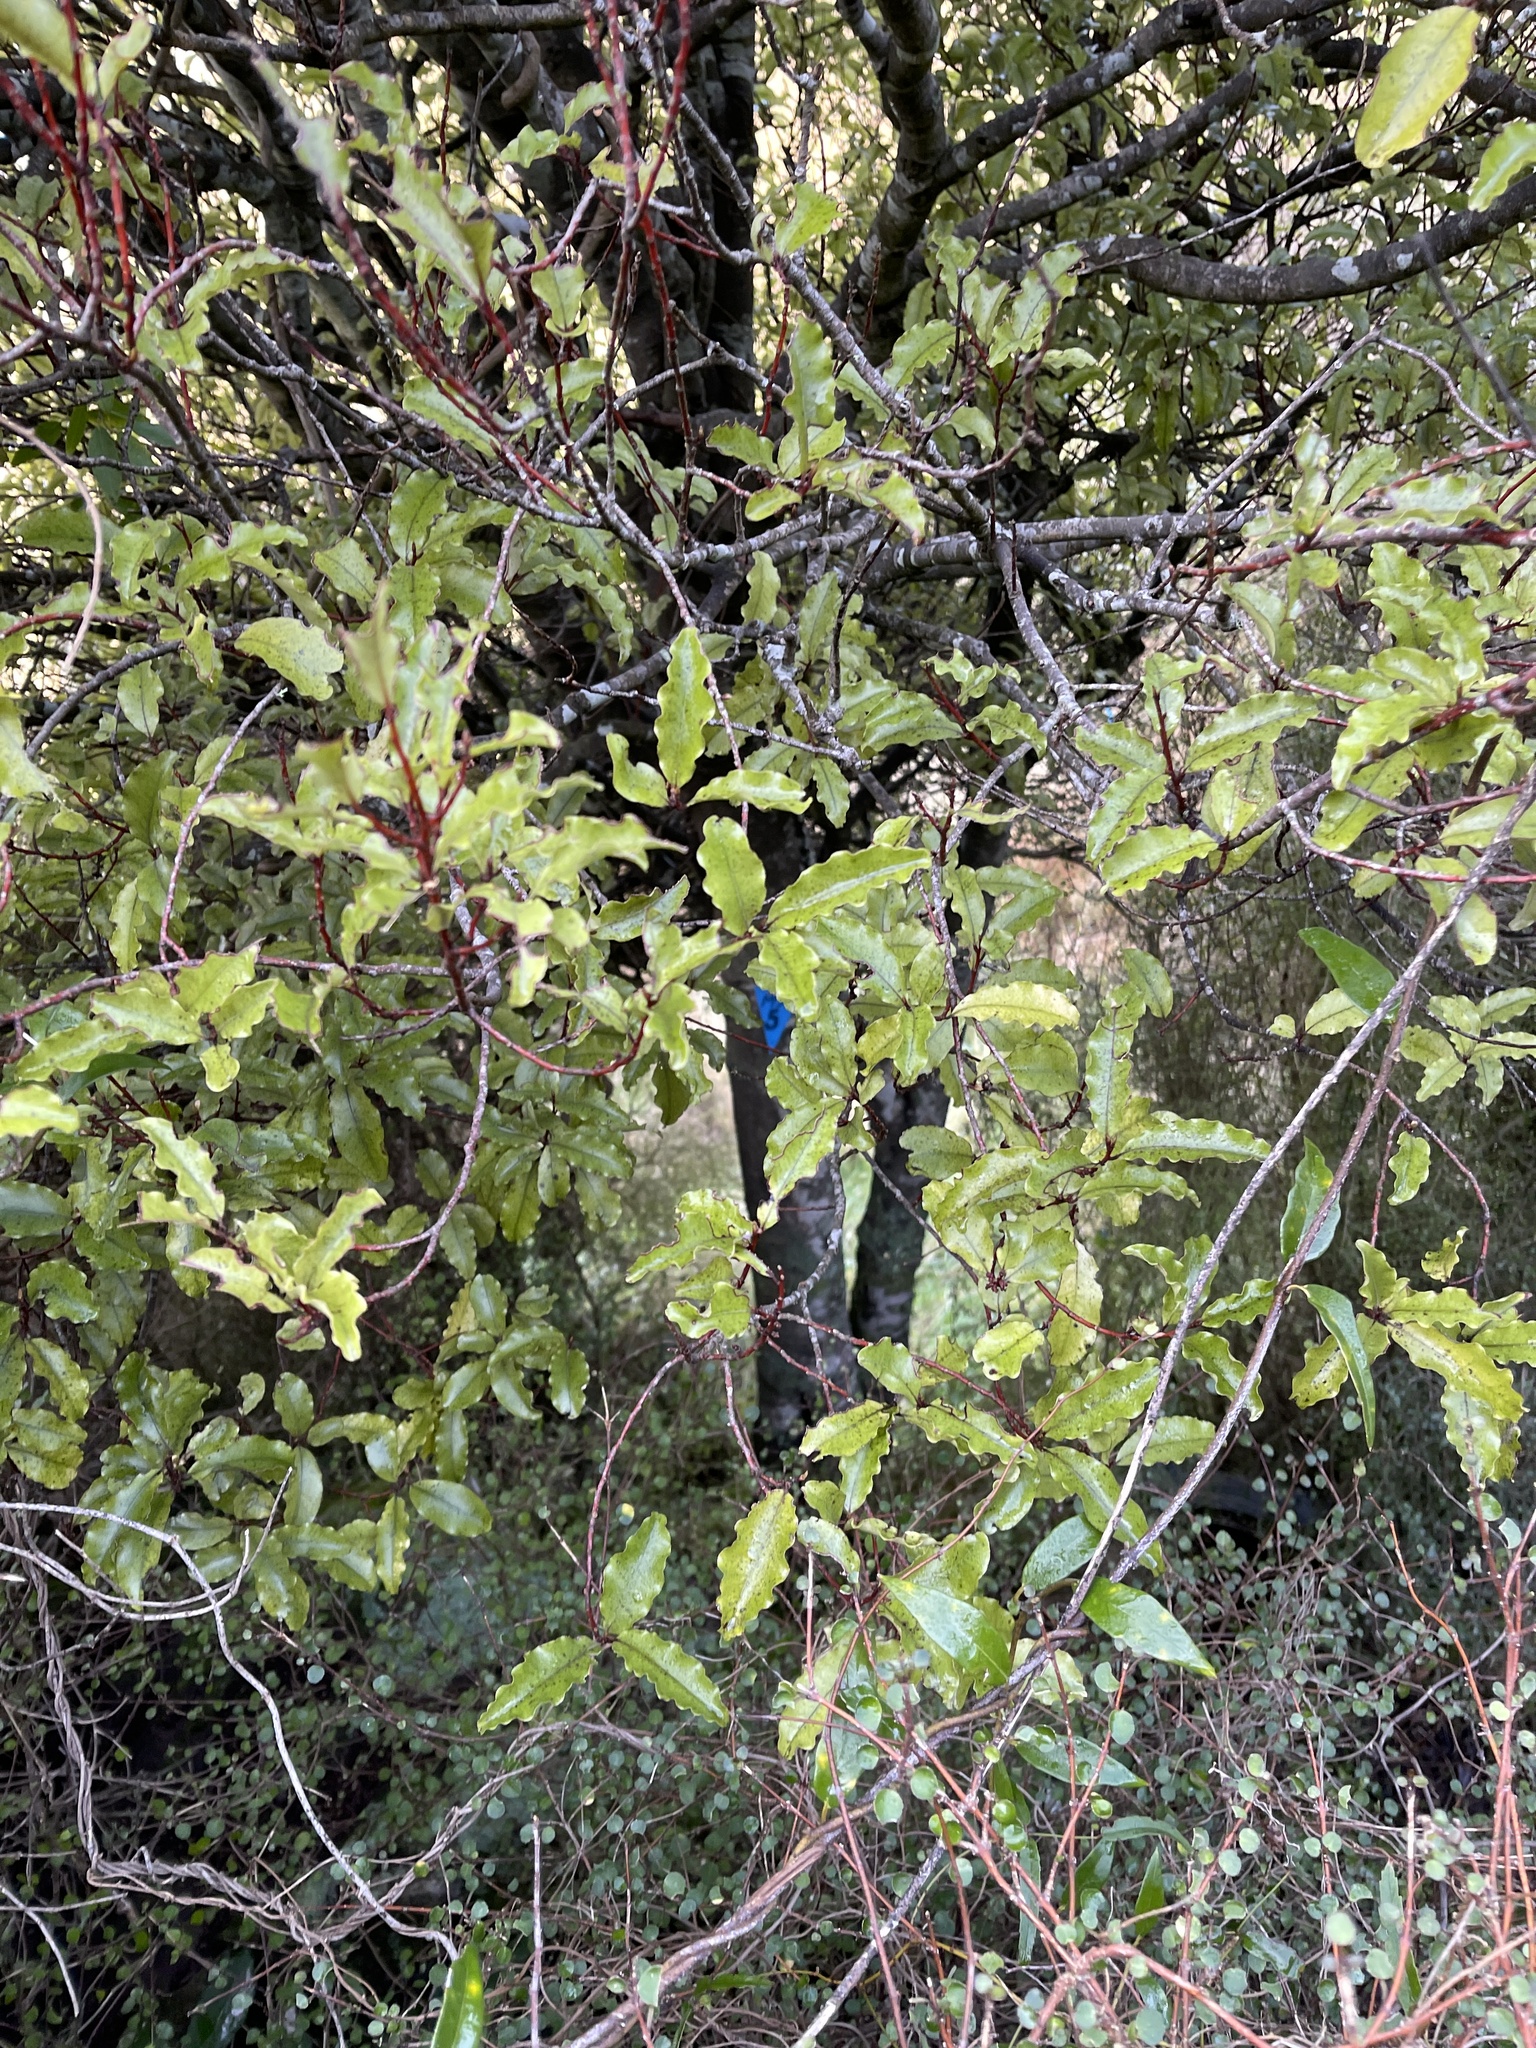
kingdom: Plantae
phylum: Tracheophyta
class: Magnoliopsida
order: Ericales
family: Primulaceae
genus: Myrsine
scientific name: Myrsine australis
